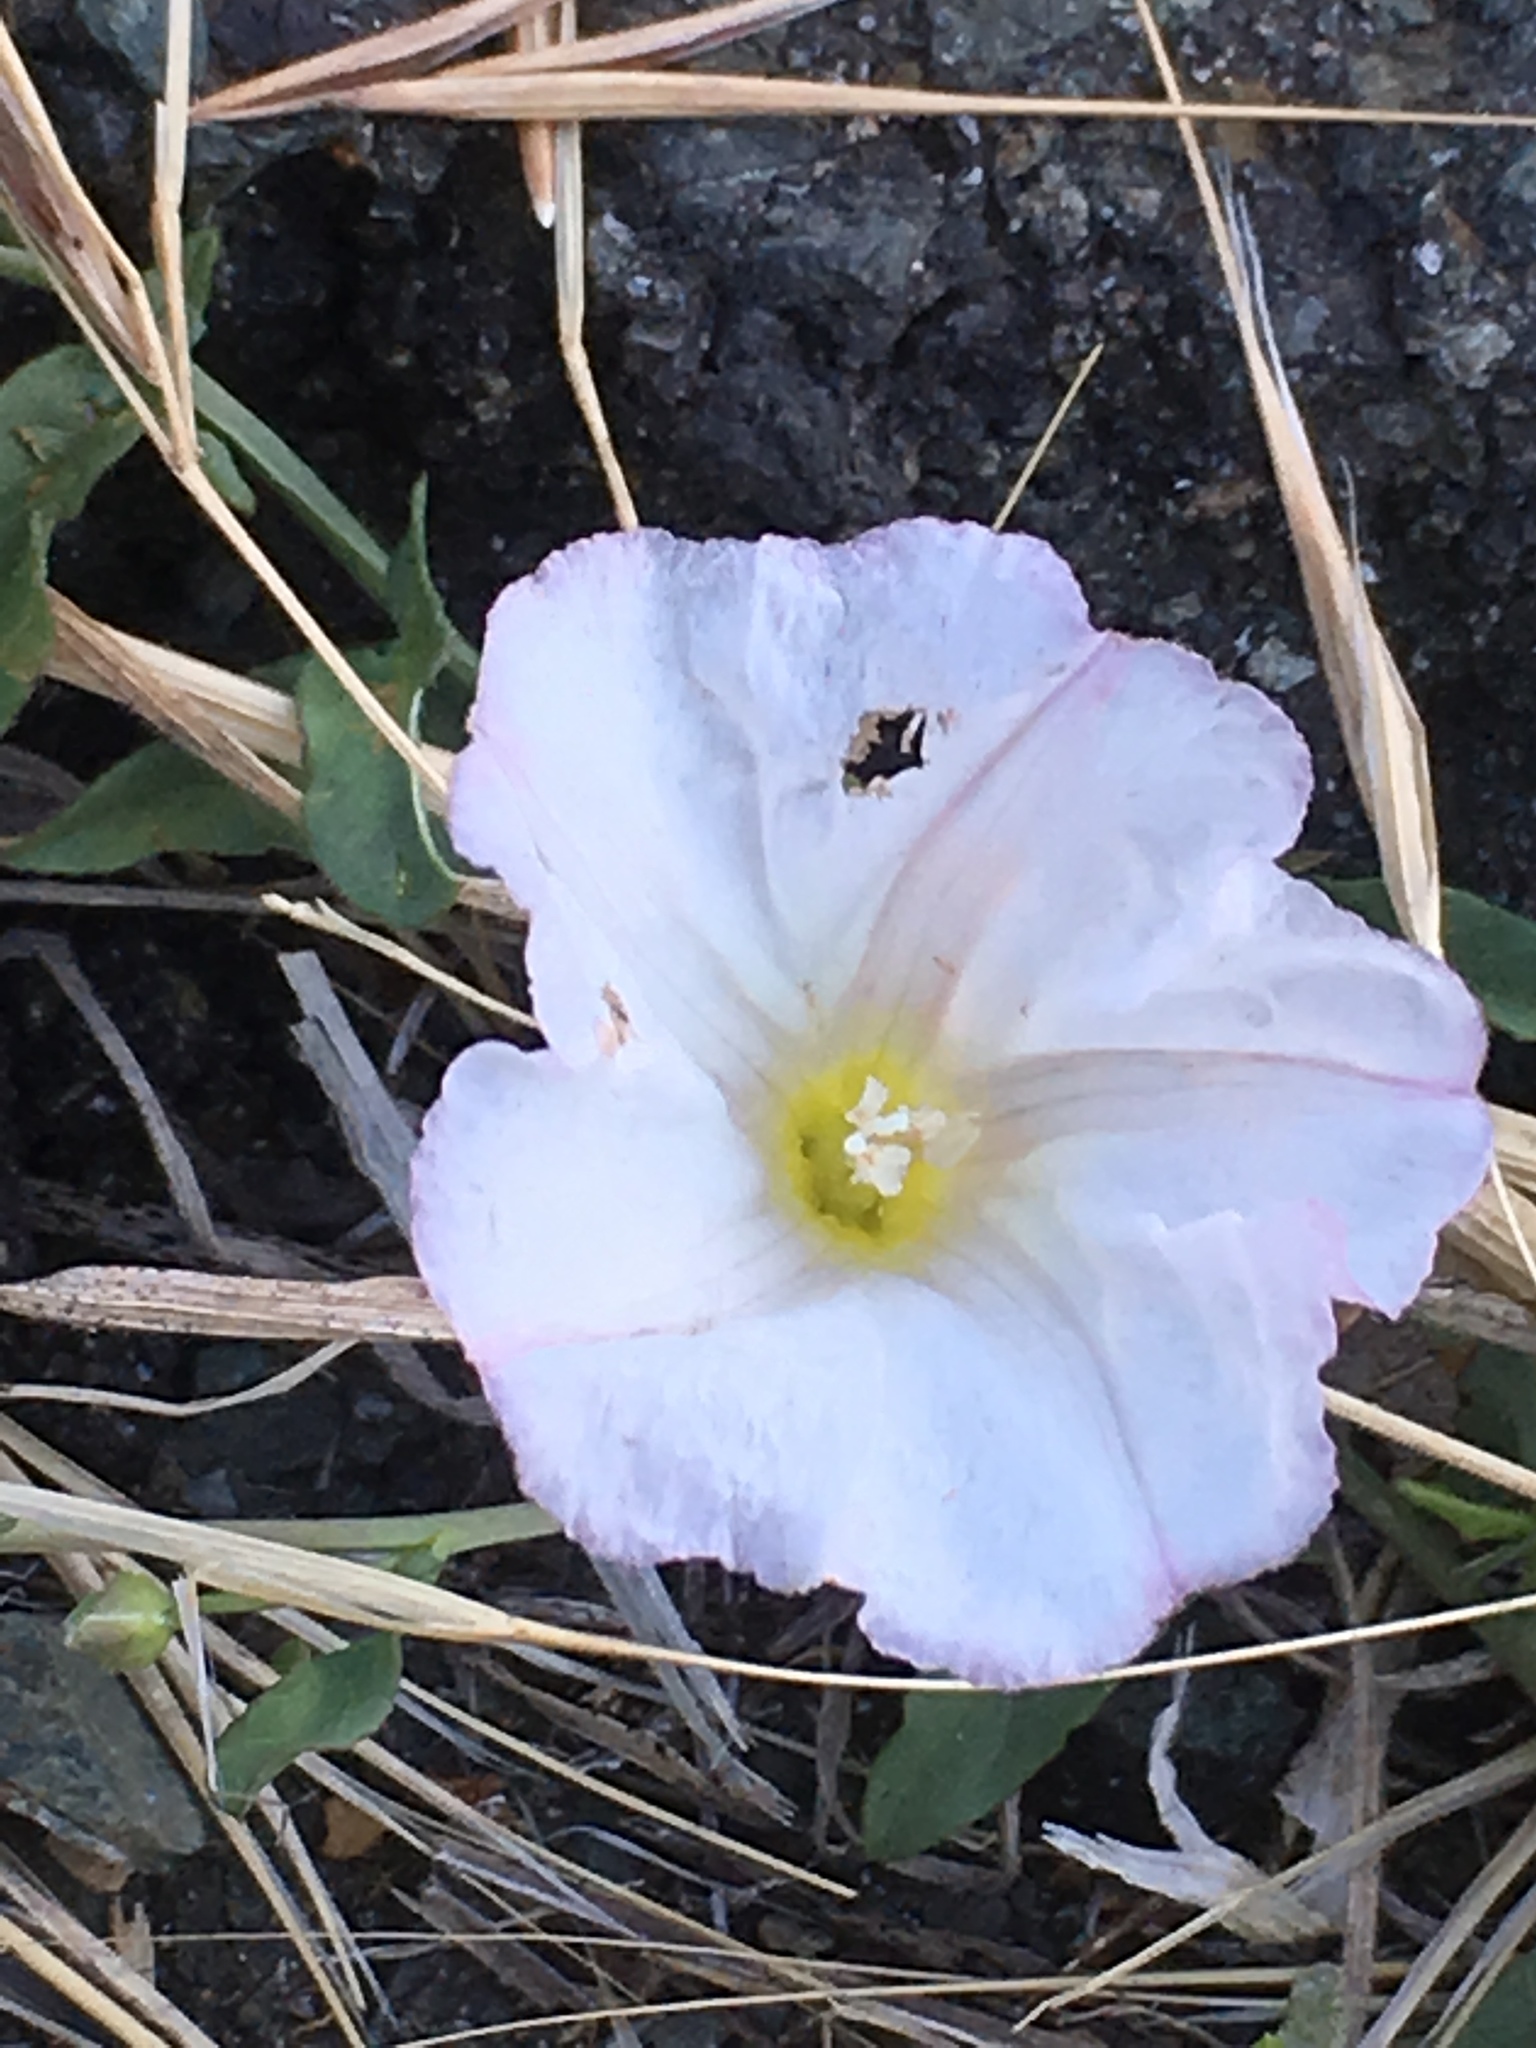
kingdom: Plantae
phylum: Tracheophyta
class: Magnoliopsida
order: Solanales
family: Convolvulaceae
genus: Convolvulus
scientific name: Convolvulus arvensis
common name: Field bindweed
